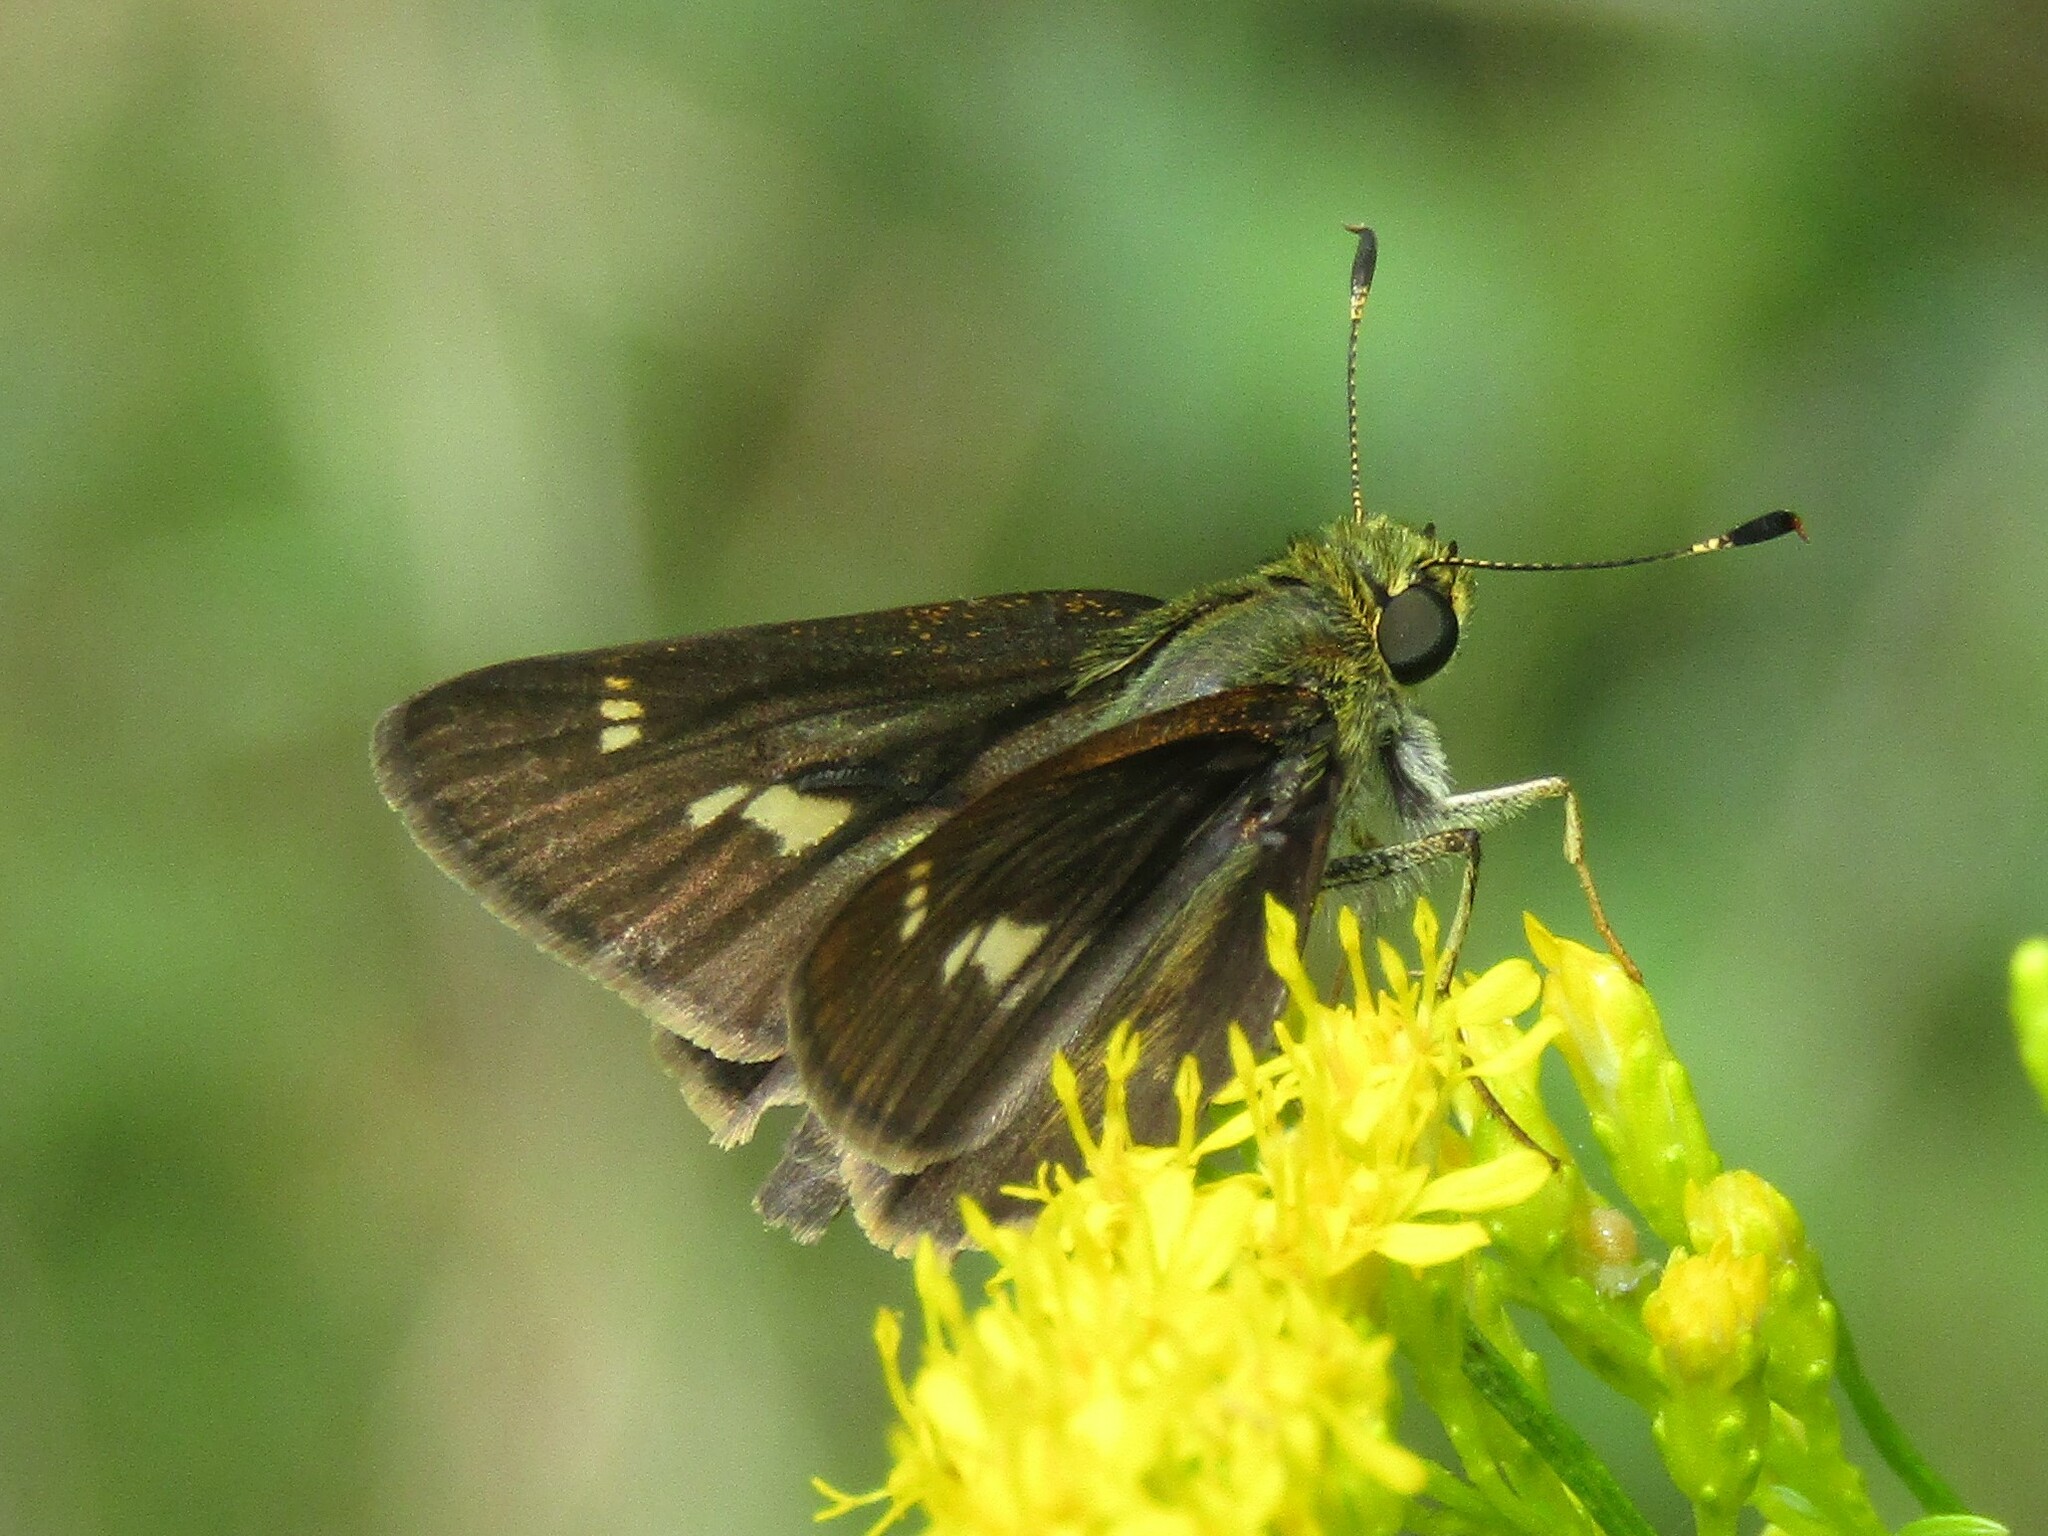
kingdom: Animalia
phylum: Arthropoda
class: Insecta
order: Lepidoptera
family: Hesperiidae
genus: Vernia
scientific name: Vernia verna
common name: Little glassywing
